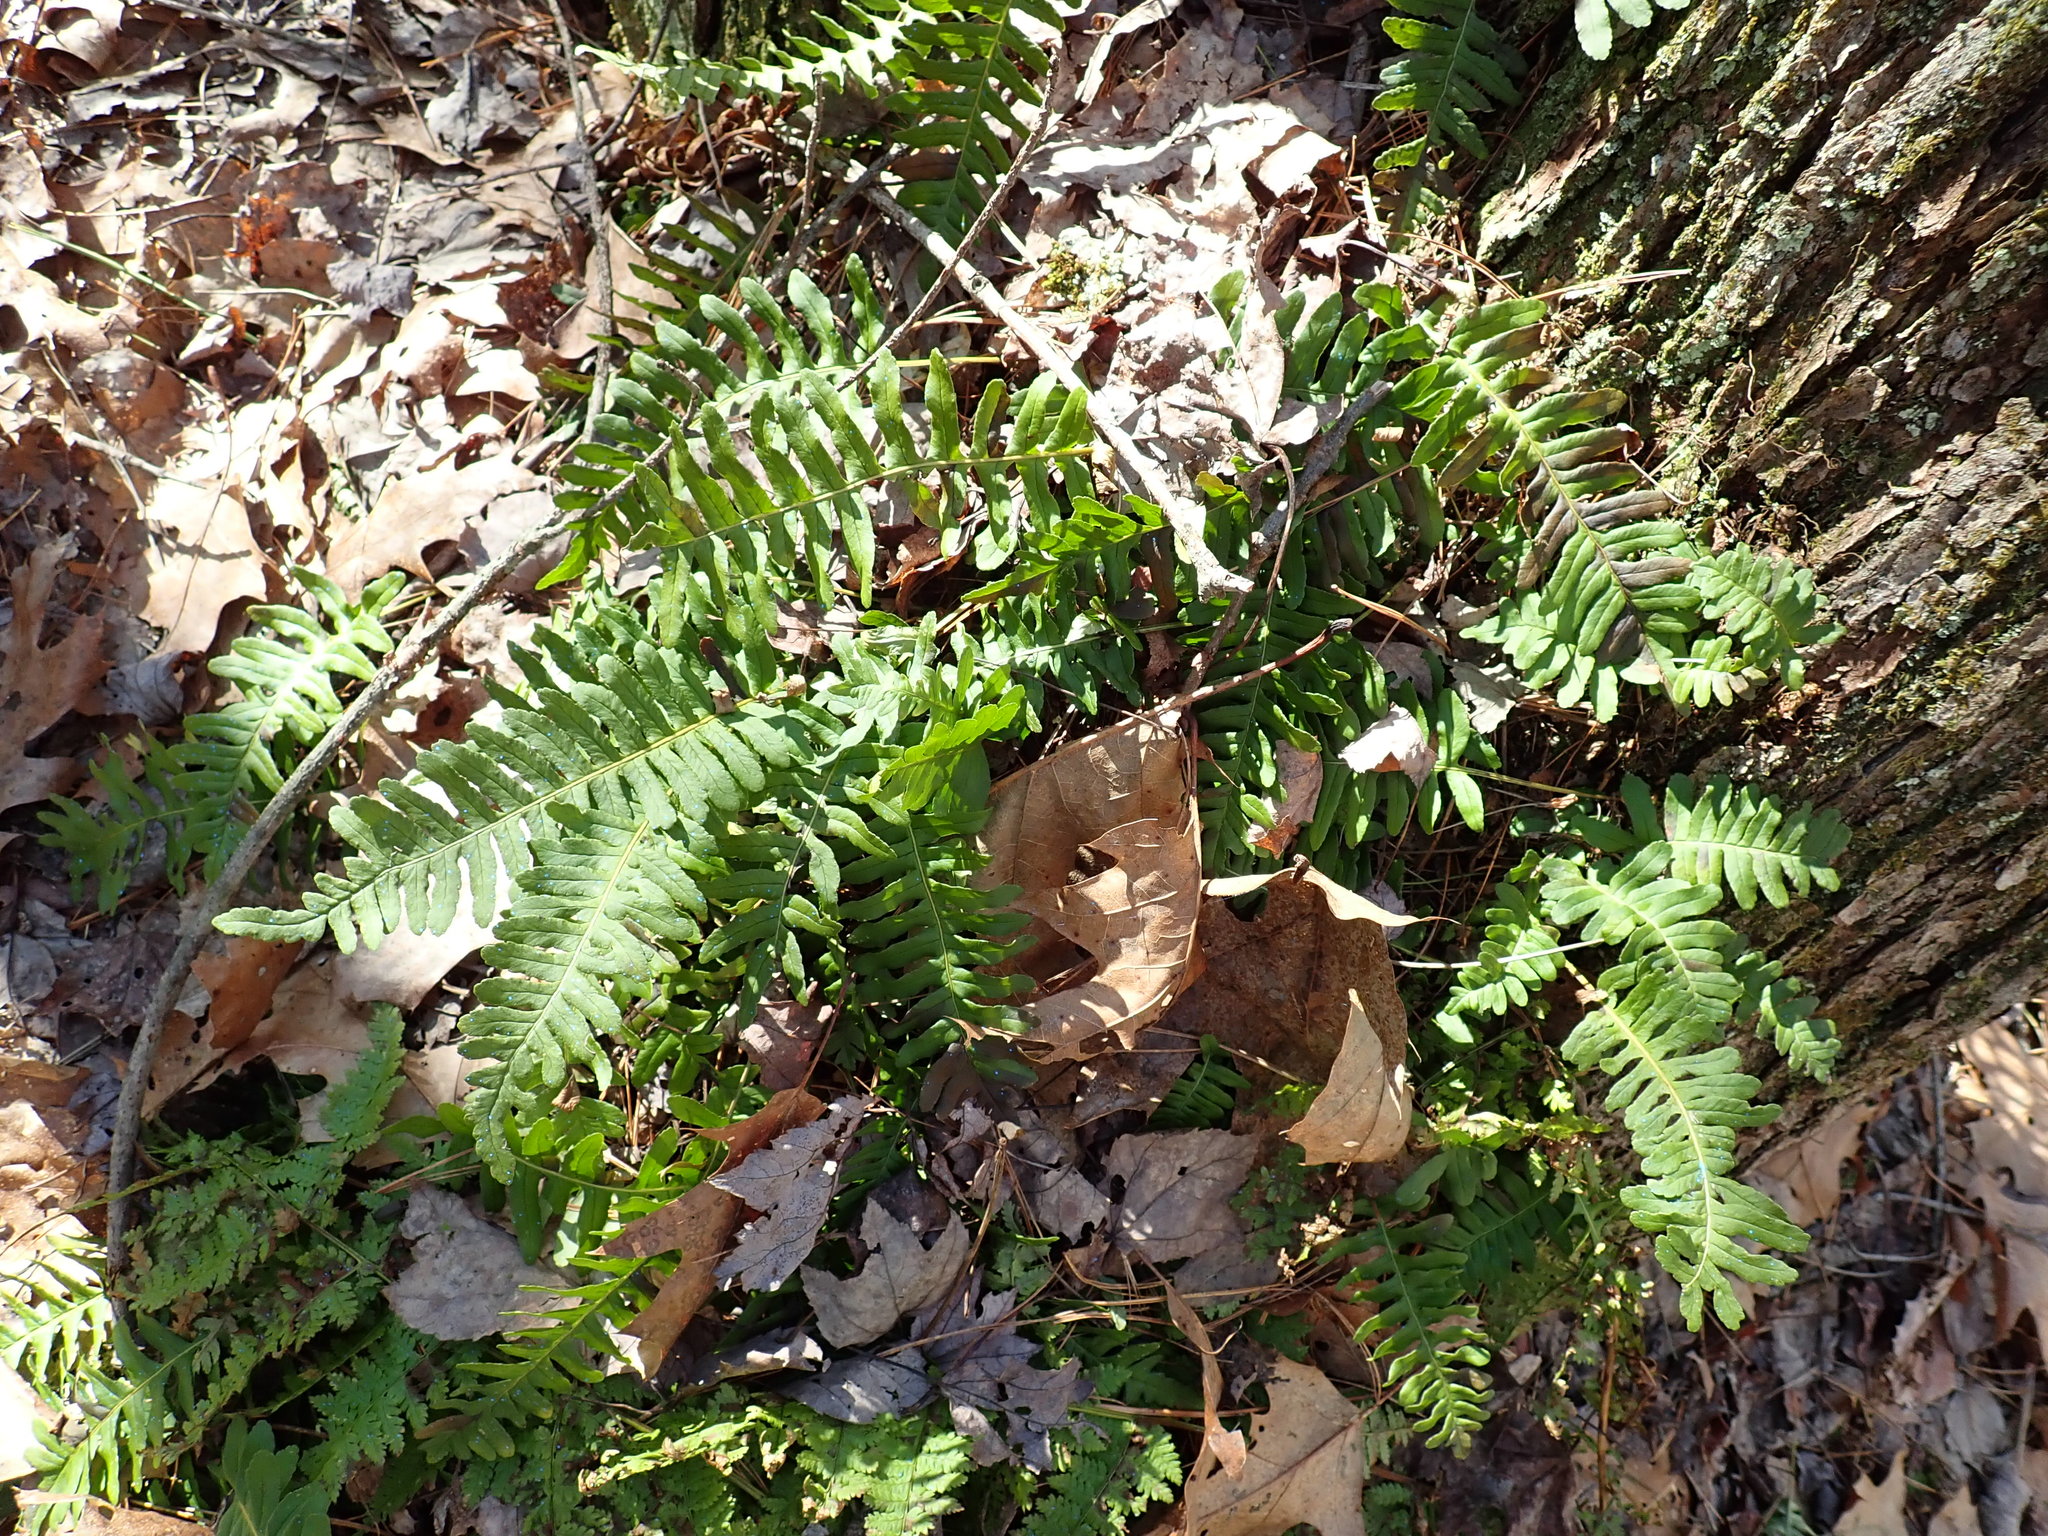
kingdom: Plantae
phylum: Tracheophyta
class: Polypodiopsida
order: Polypodiales
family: Polypodiaceae
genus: Polypodium
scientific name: Polypodium
